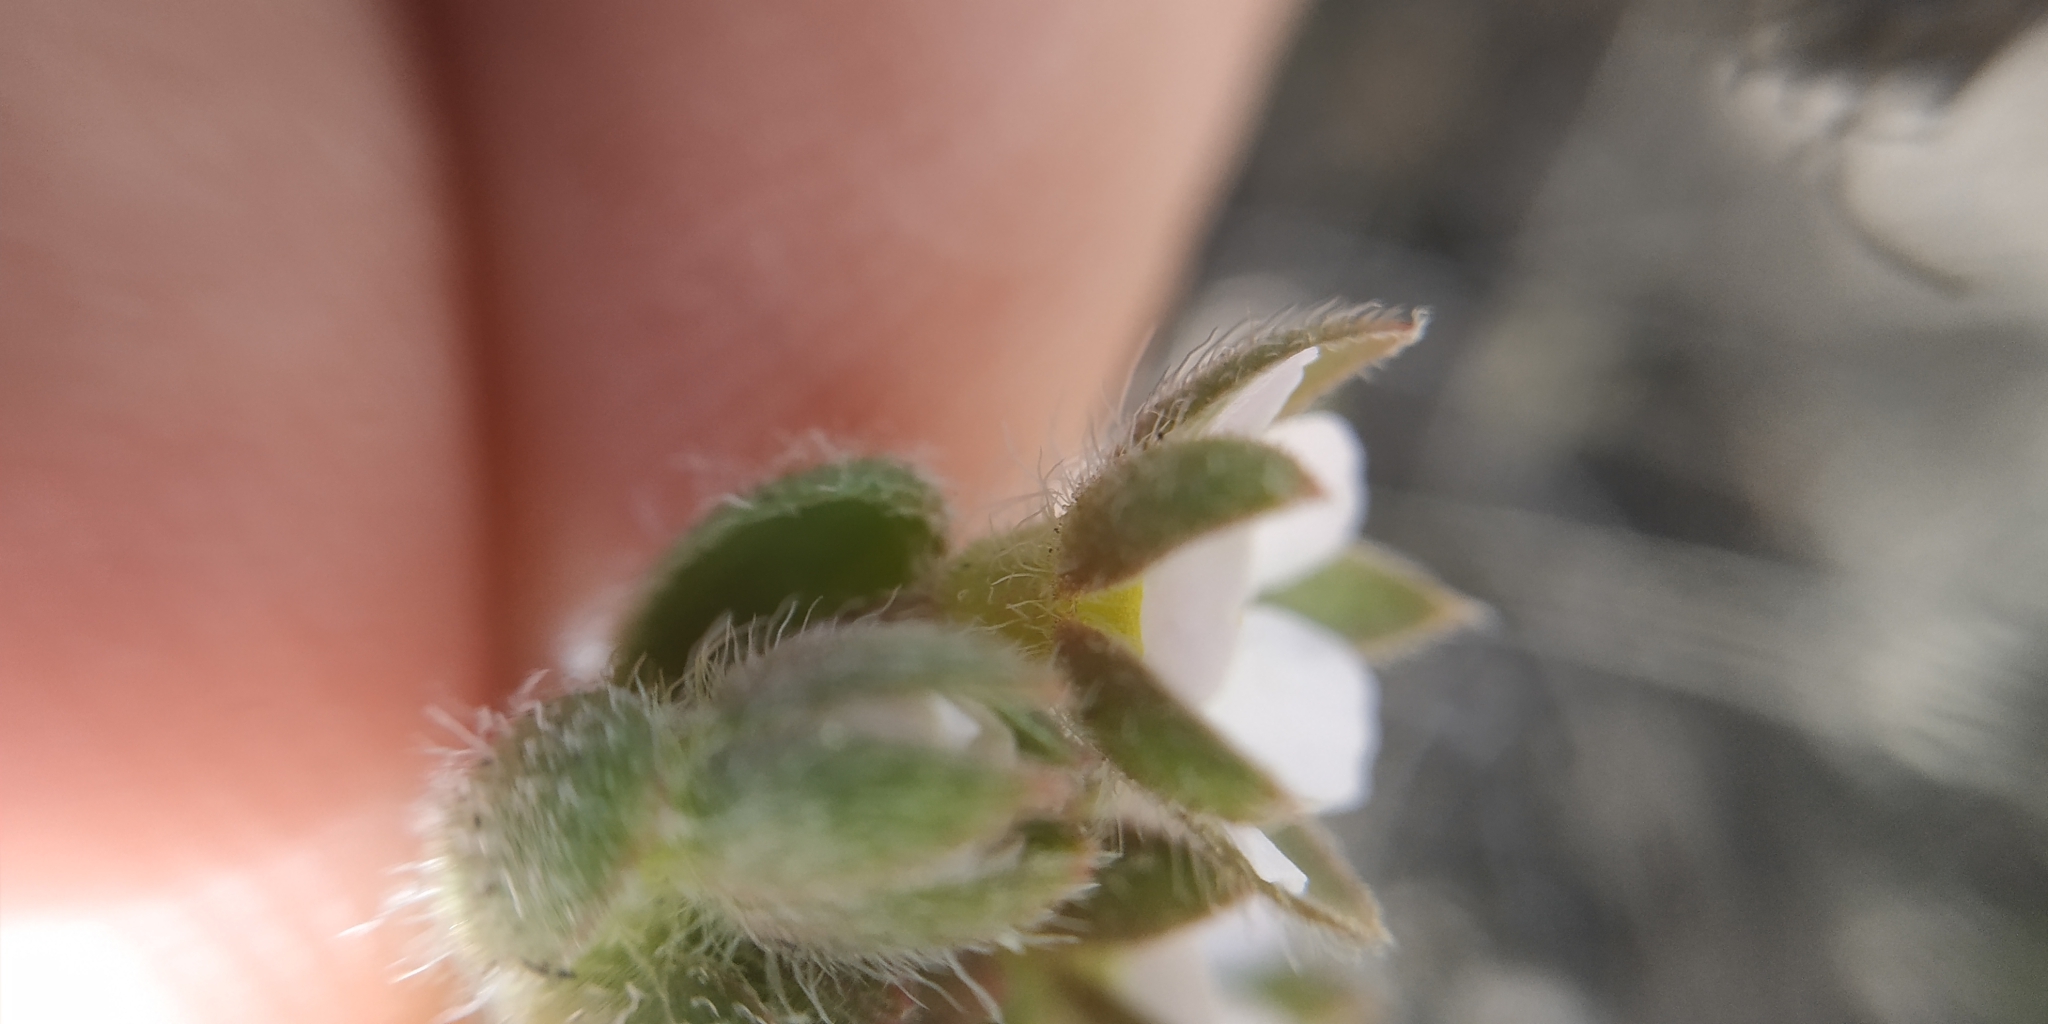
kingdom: Plantae
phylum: Tracheophyta
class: Magnoliopsida
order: Ericales
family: Primulaceae
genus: Androsace
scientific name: Androsace maxima
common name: Annual androsace
